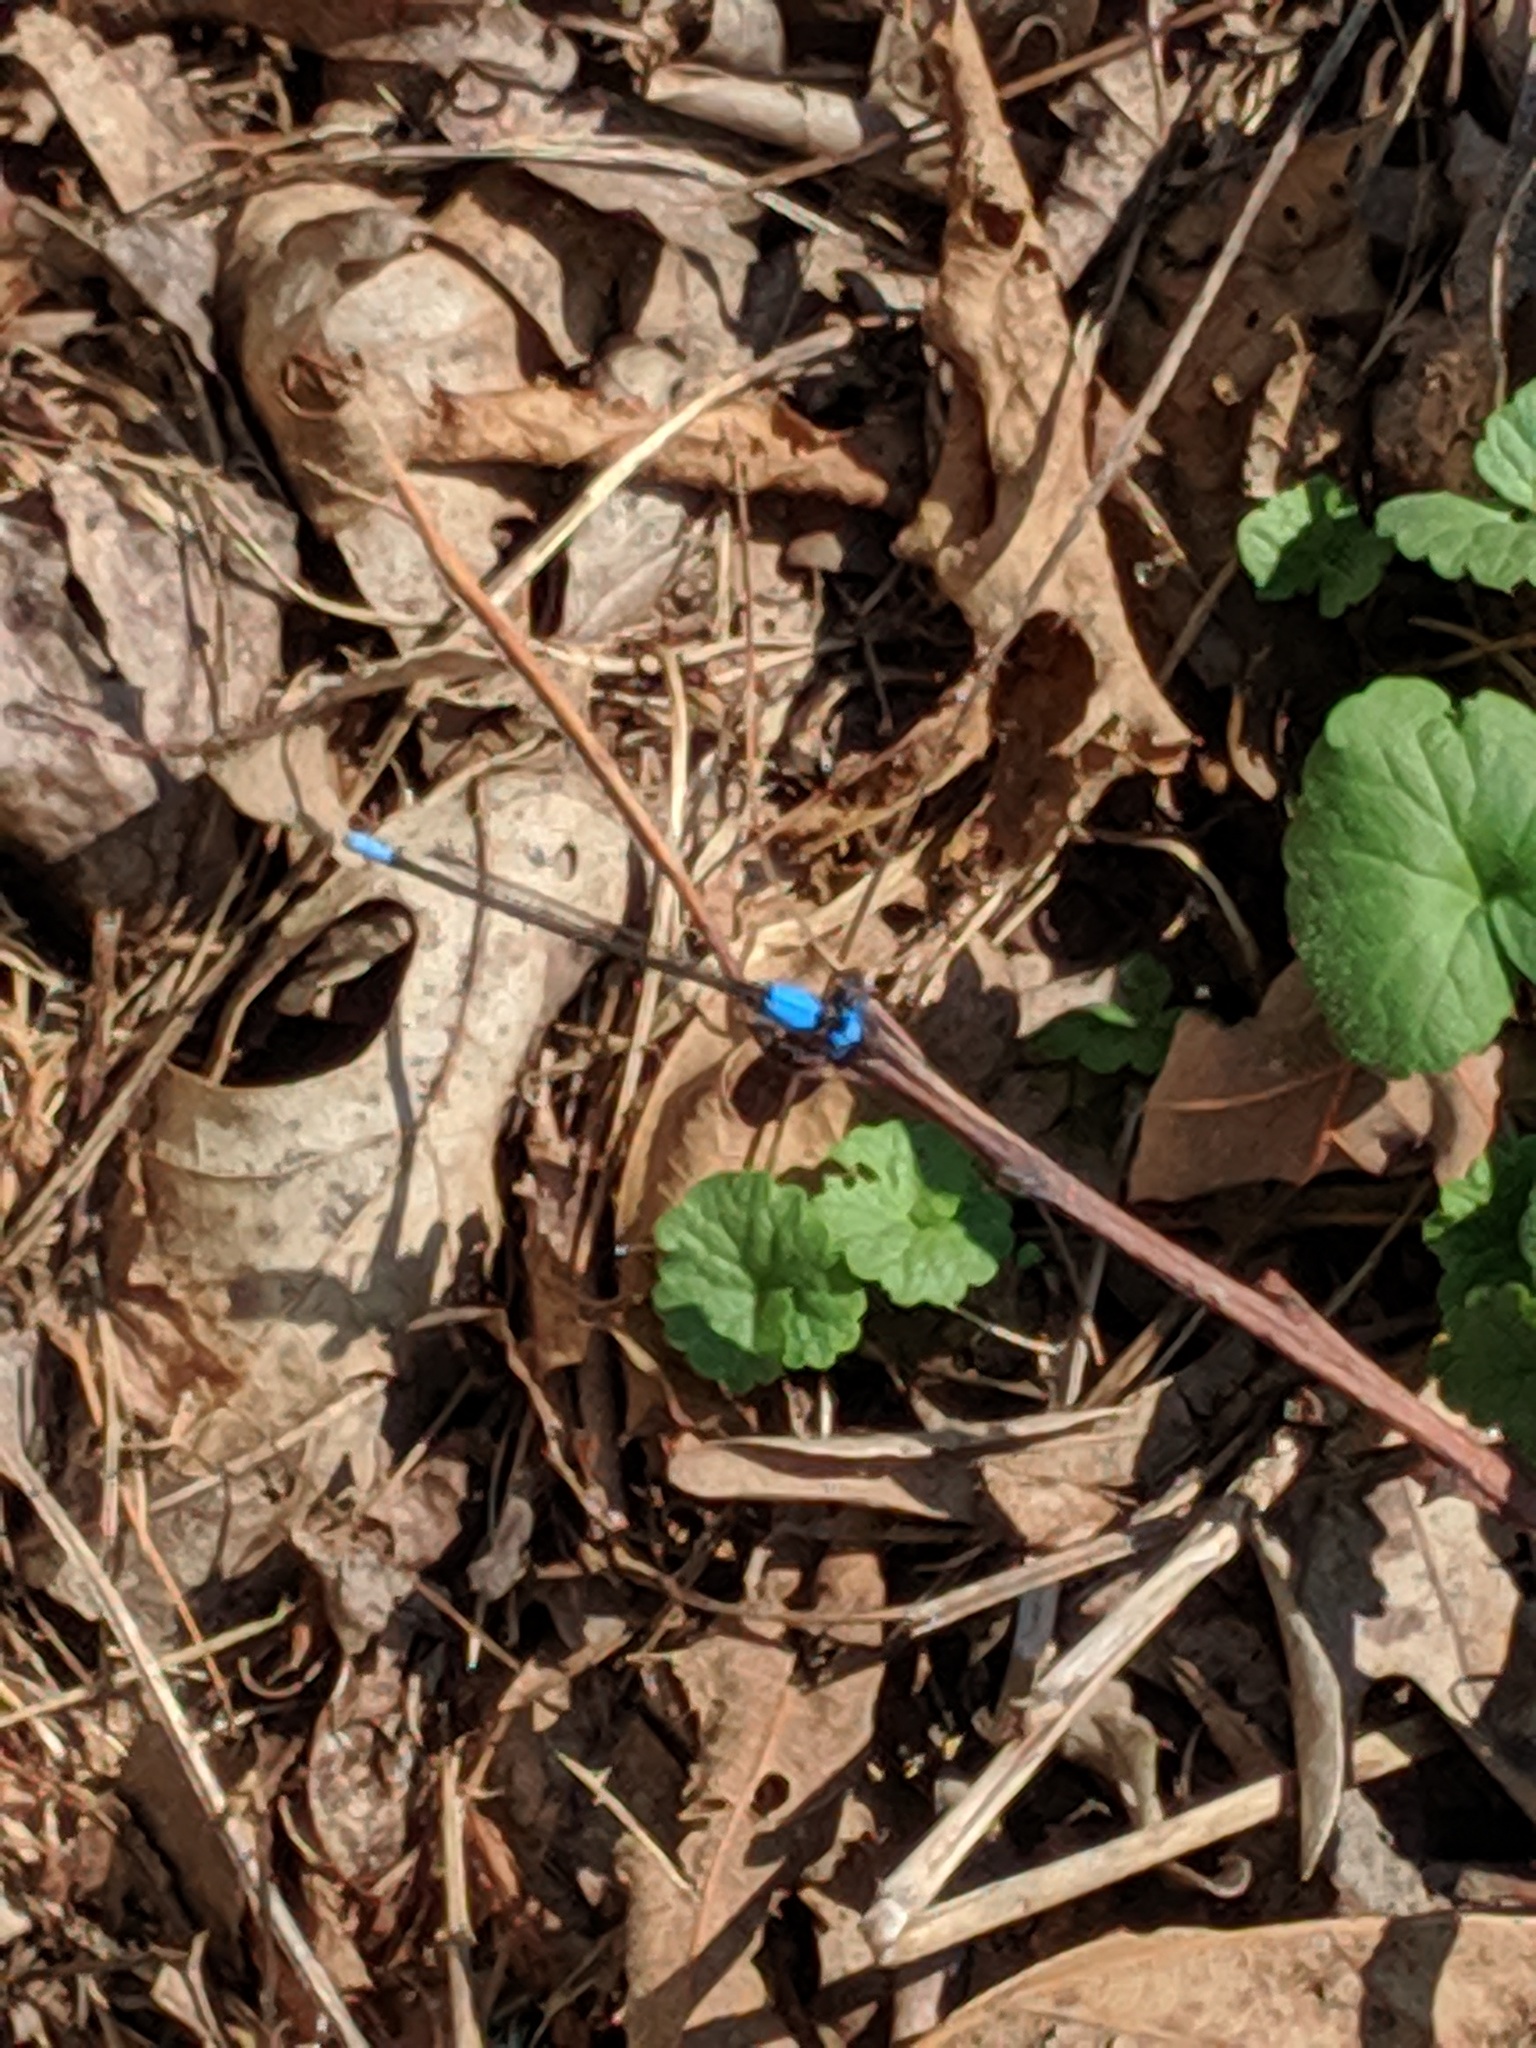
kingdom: Animalia
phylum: Arthropoda
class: Insecta
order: Odonata
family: Coenagrionidae
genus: Argia
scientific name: Argia apicalis
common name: Blue-fronted dancer
